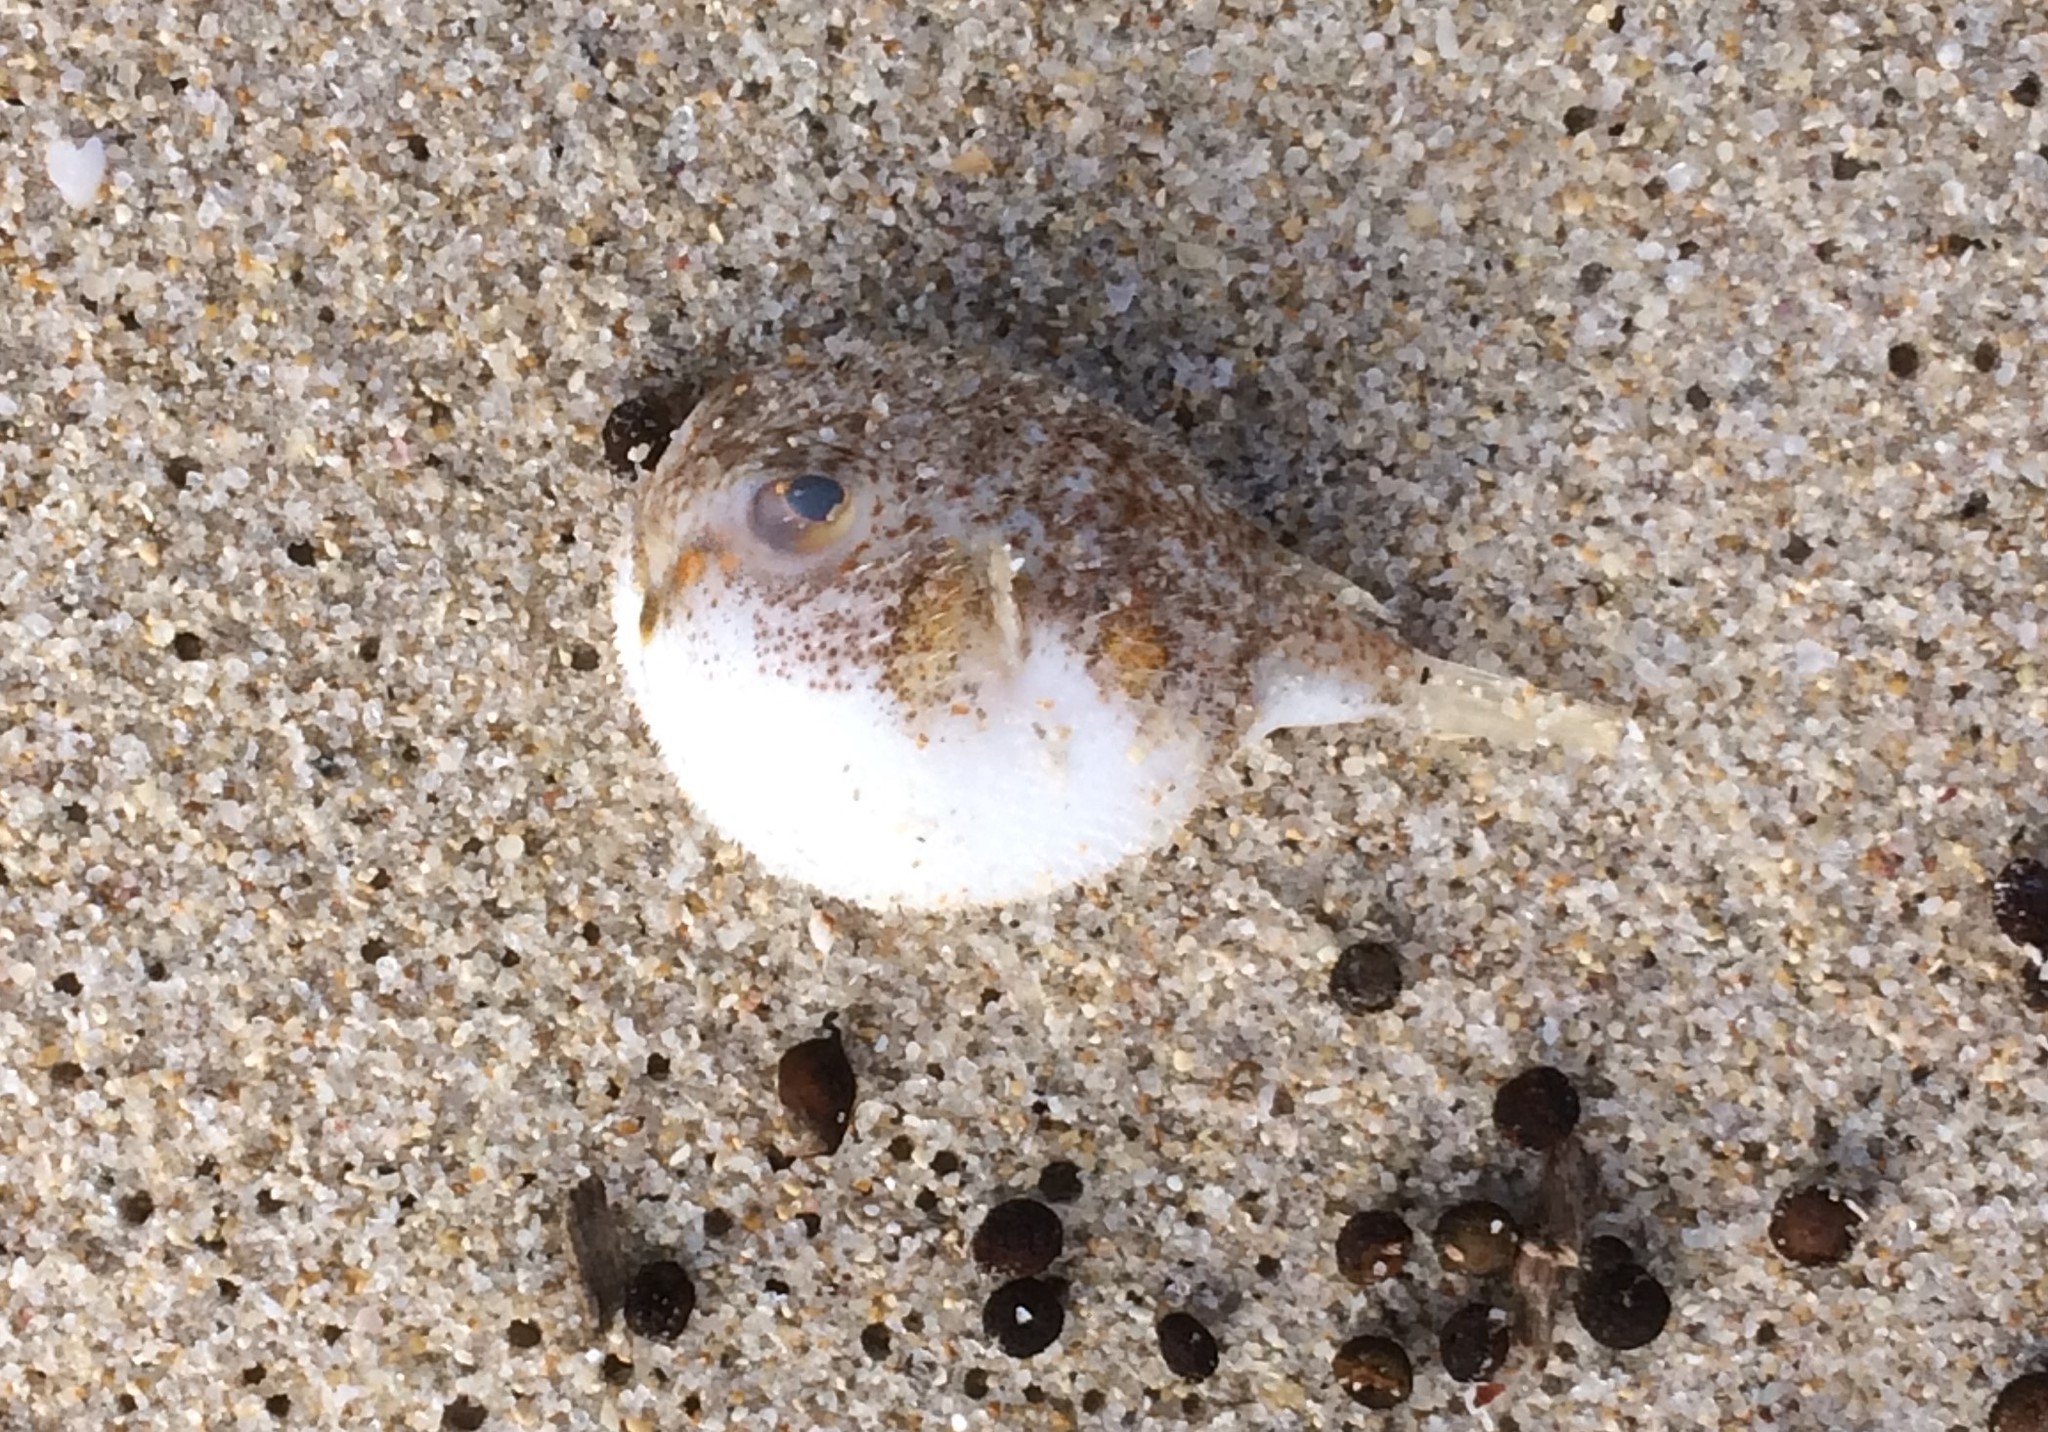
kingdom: Animalia
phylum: Chordata
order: Tetraodontiformes
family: Tetraodontidae
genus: Polyspina
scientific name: Polyspina piosae
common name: Orange-barred pufferfish
